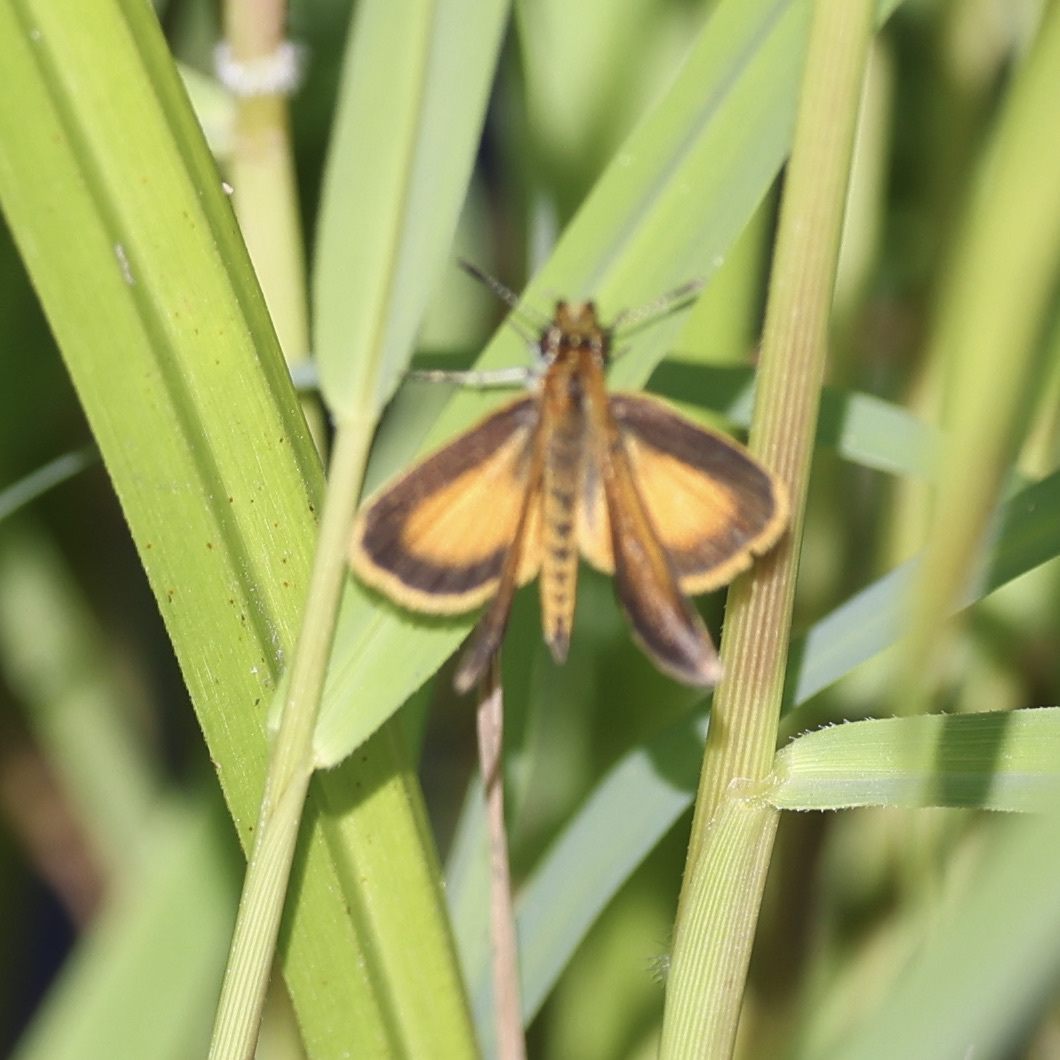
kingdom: Animalia
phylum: Arthropoda
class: Insecta
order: Lepidoptera
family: Hesperiidae
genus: Ancyloxypha
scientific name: Ancyloxypha numitor
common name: Least skipper
